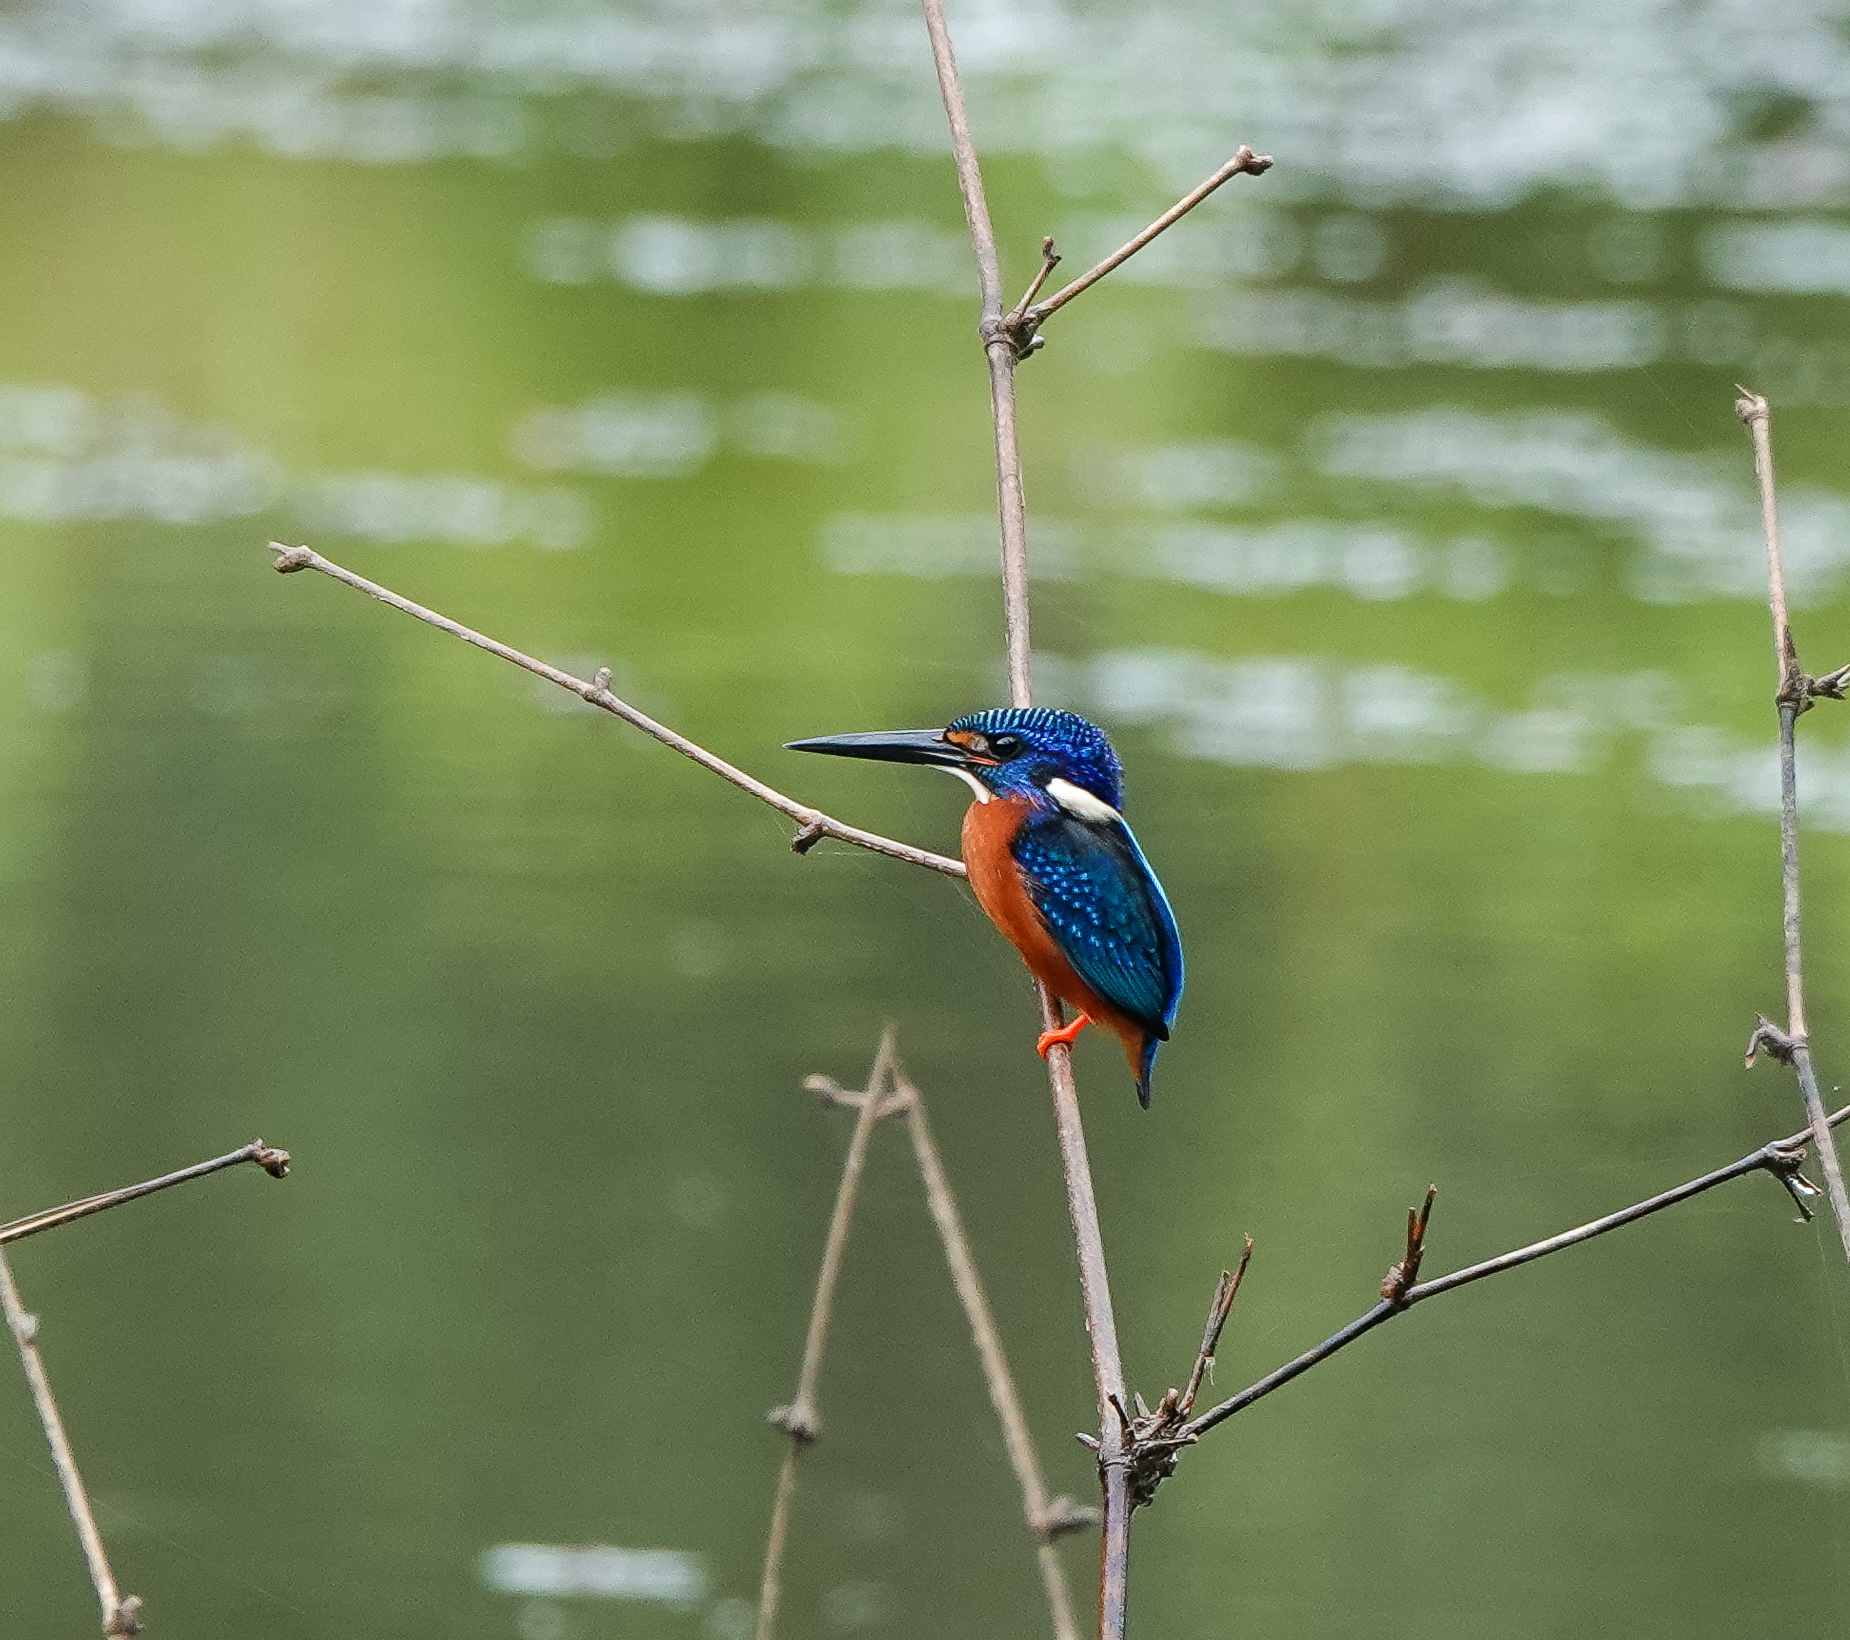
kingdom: Animalia
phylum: Chordata
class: Aves
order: Coraciiformes
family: Alcedinidae
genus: Alcedo
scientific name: Alcedo meninting
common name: Blue-eared kingfisher
